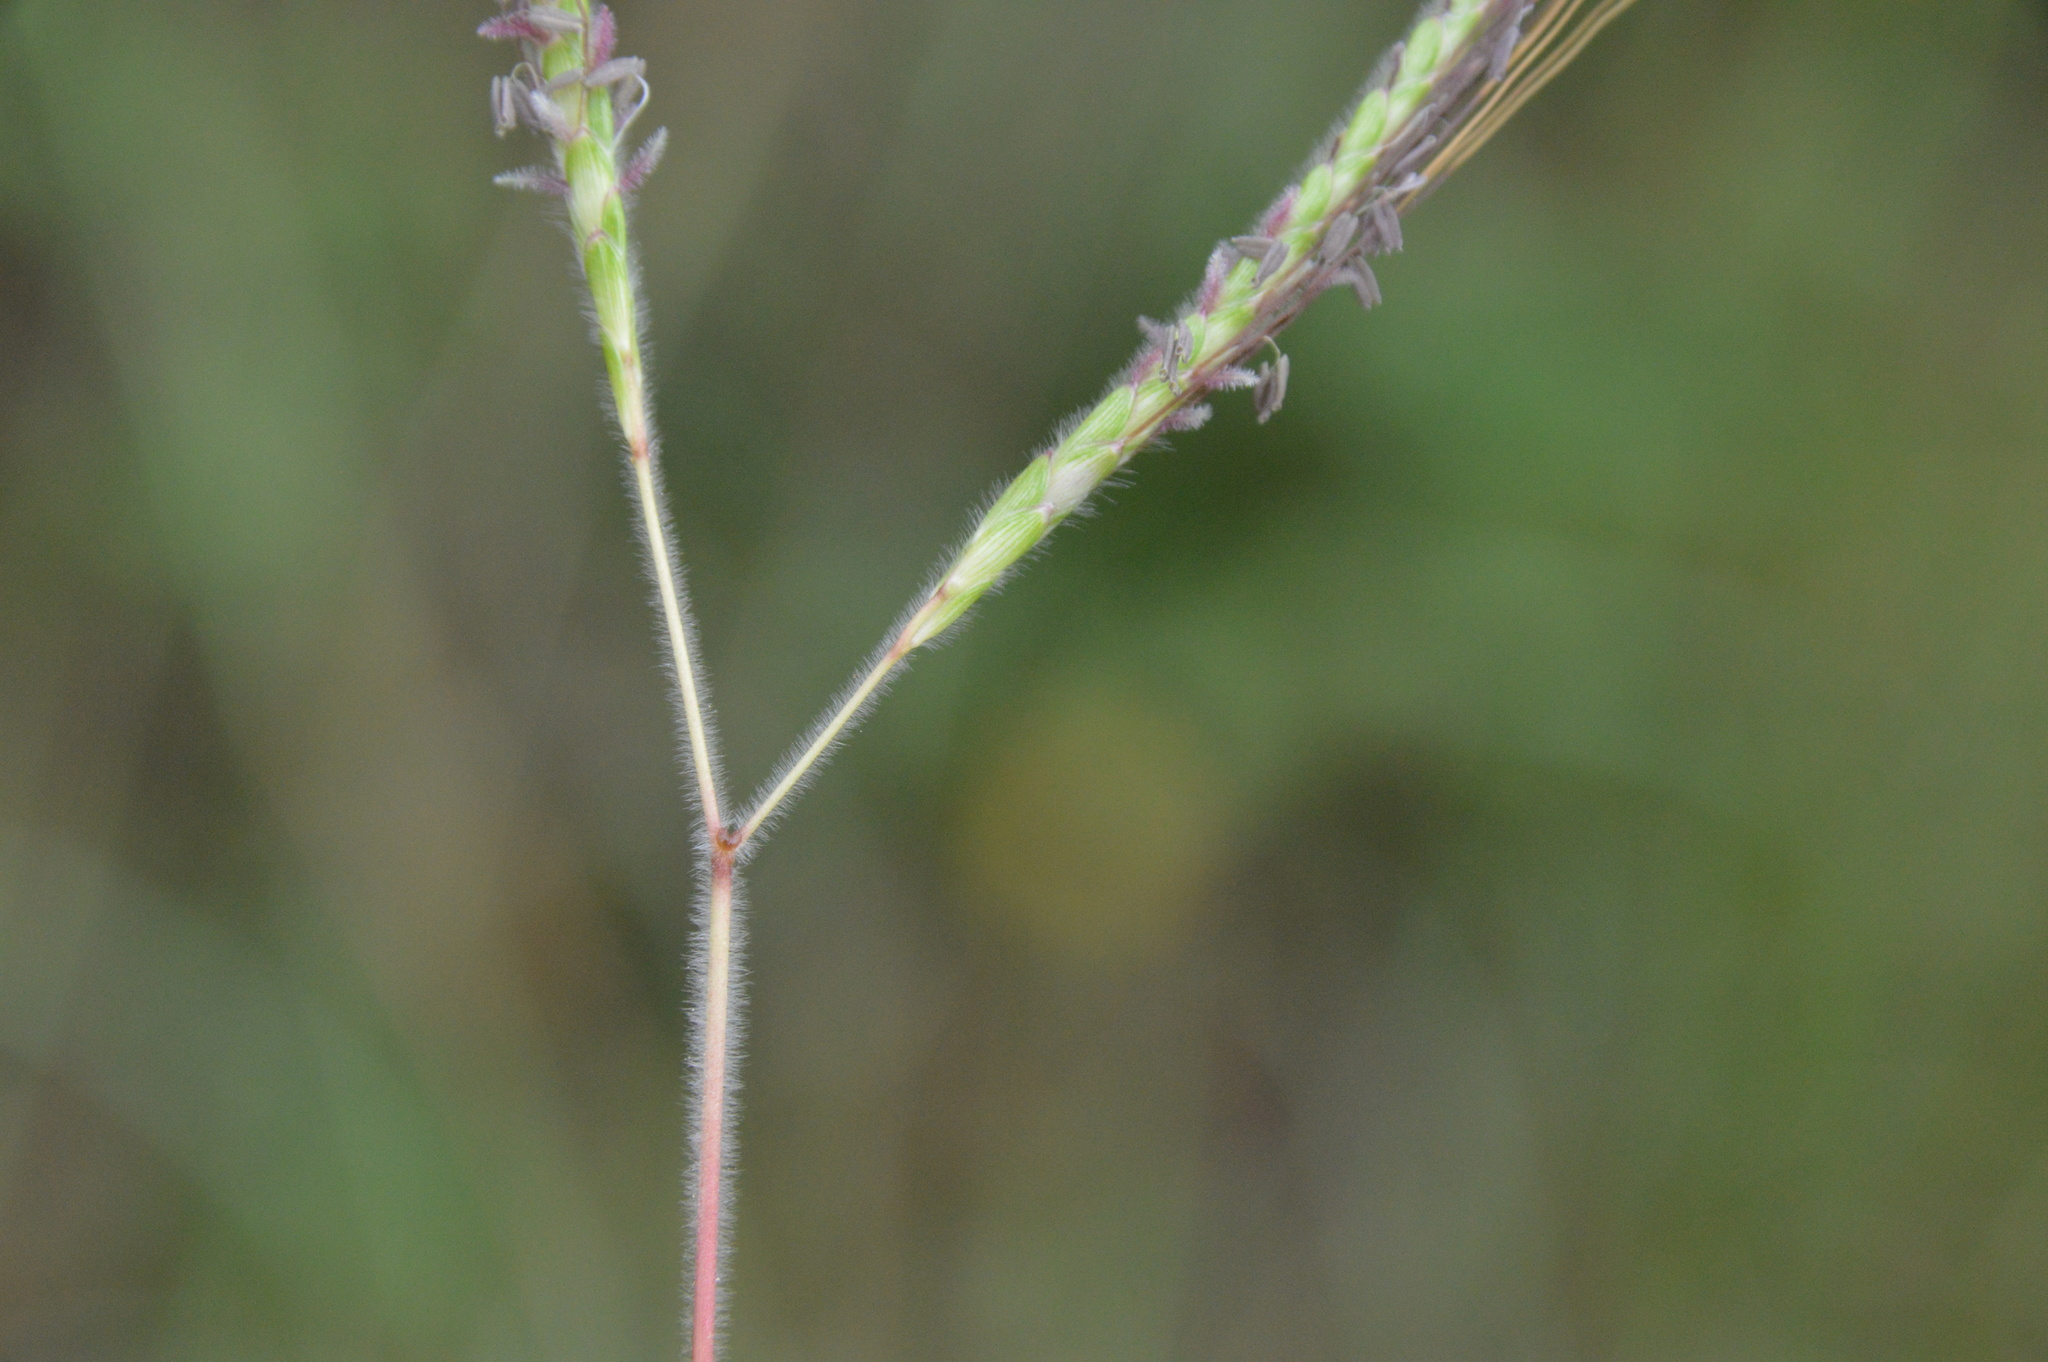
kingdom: Plantae
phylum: Tracheophyta
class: Liliopsida
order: Poales
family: Poaceae
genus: Dichanthium
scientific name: Dichanthium aristatum
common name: Angleton bluestem
